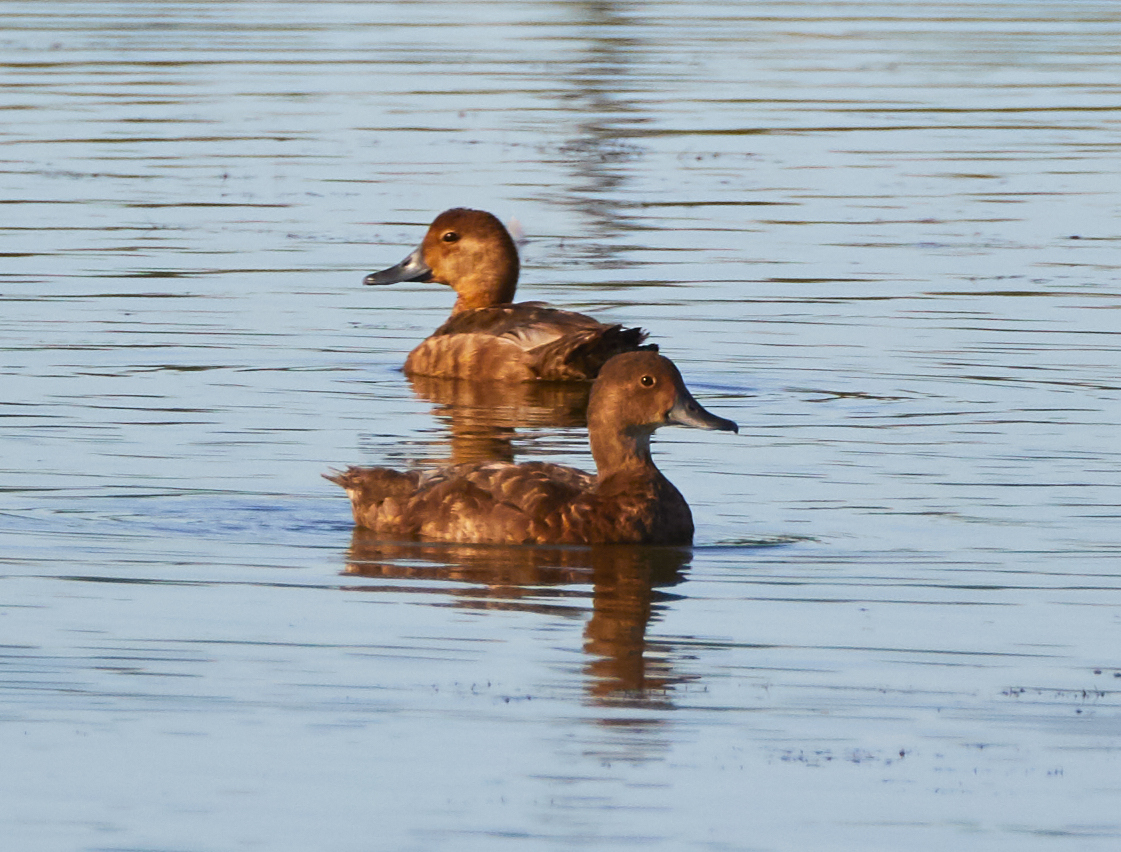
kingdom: Animalia
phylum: Chordata
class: Aves
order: Anseriformes
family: Anatidae
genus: Aythya
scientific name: Aythya americana
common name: Redhead
